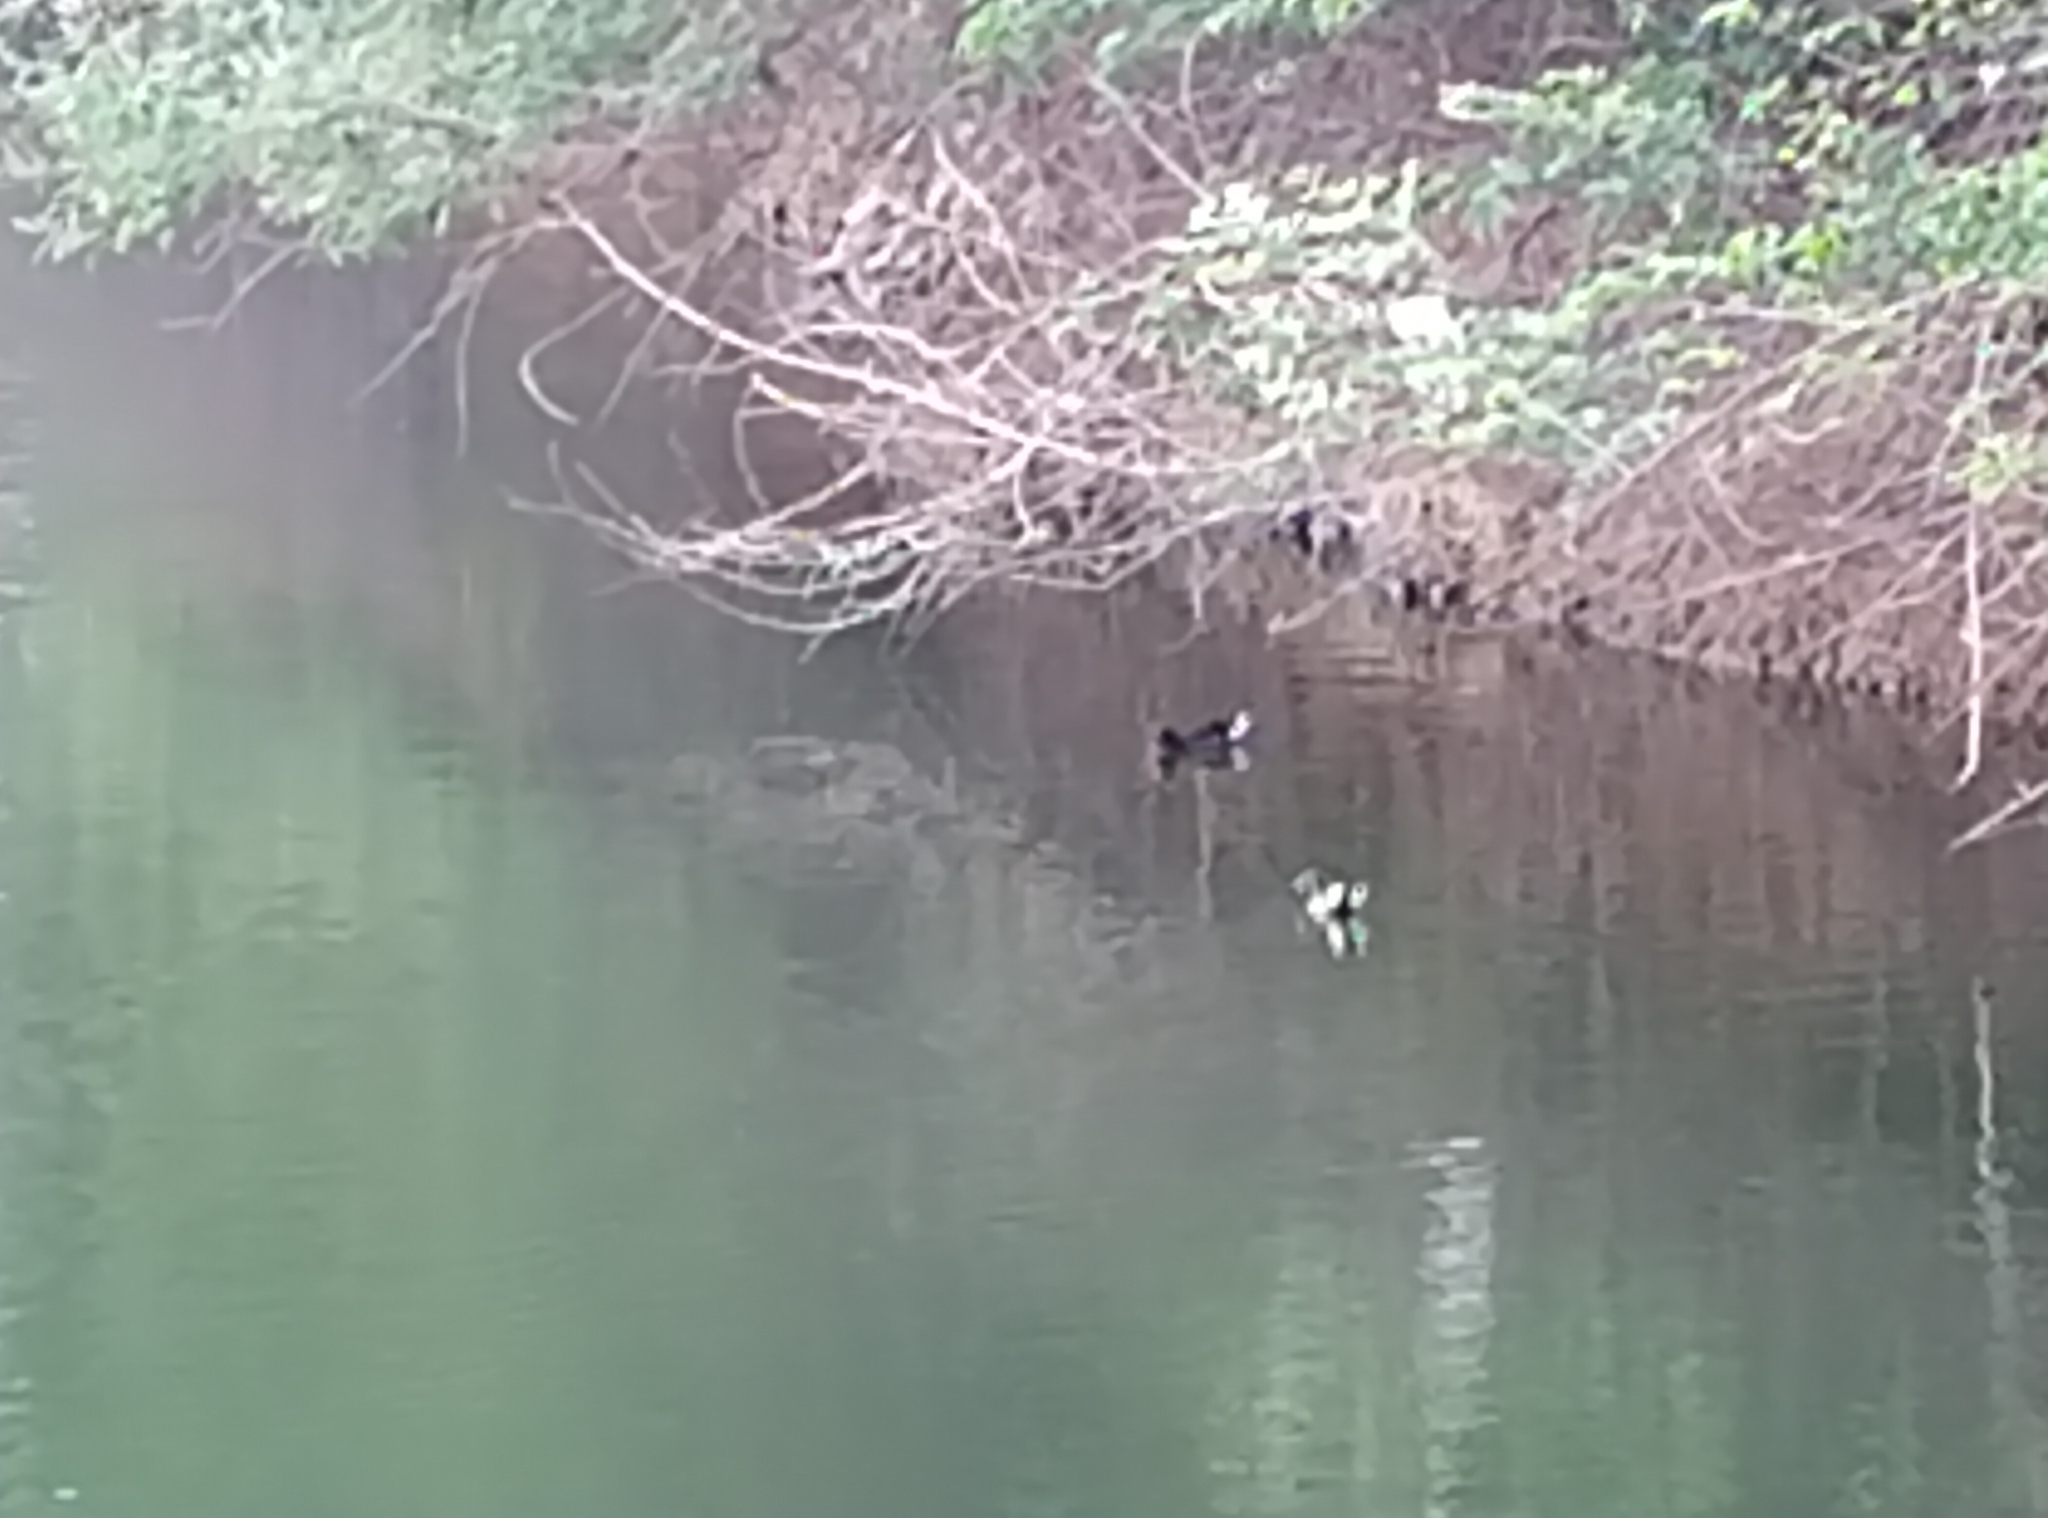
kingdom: Animalia
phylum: Chordata
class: Aves
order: Gruiformes
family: Rallidae
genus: Gallinula
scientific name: Gallinula chloropus
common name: Common moorhen
